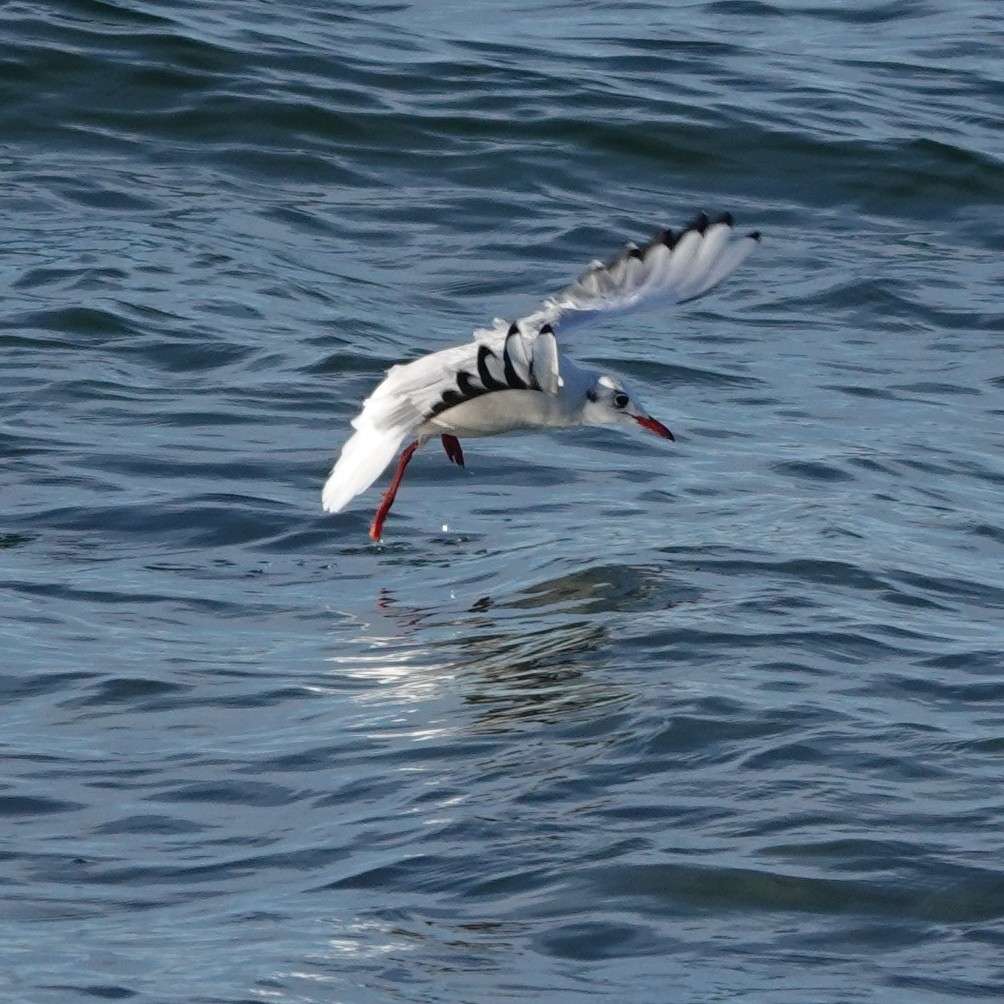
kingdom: Animalia
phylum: Chordata
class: Aves
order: Charadriiformes
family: Laridae
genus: Chroicocephalus
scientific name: Chroicocephalus ridibundus
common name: Black-headed gull
